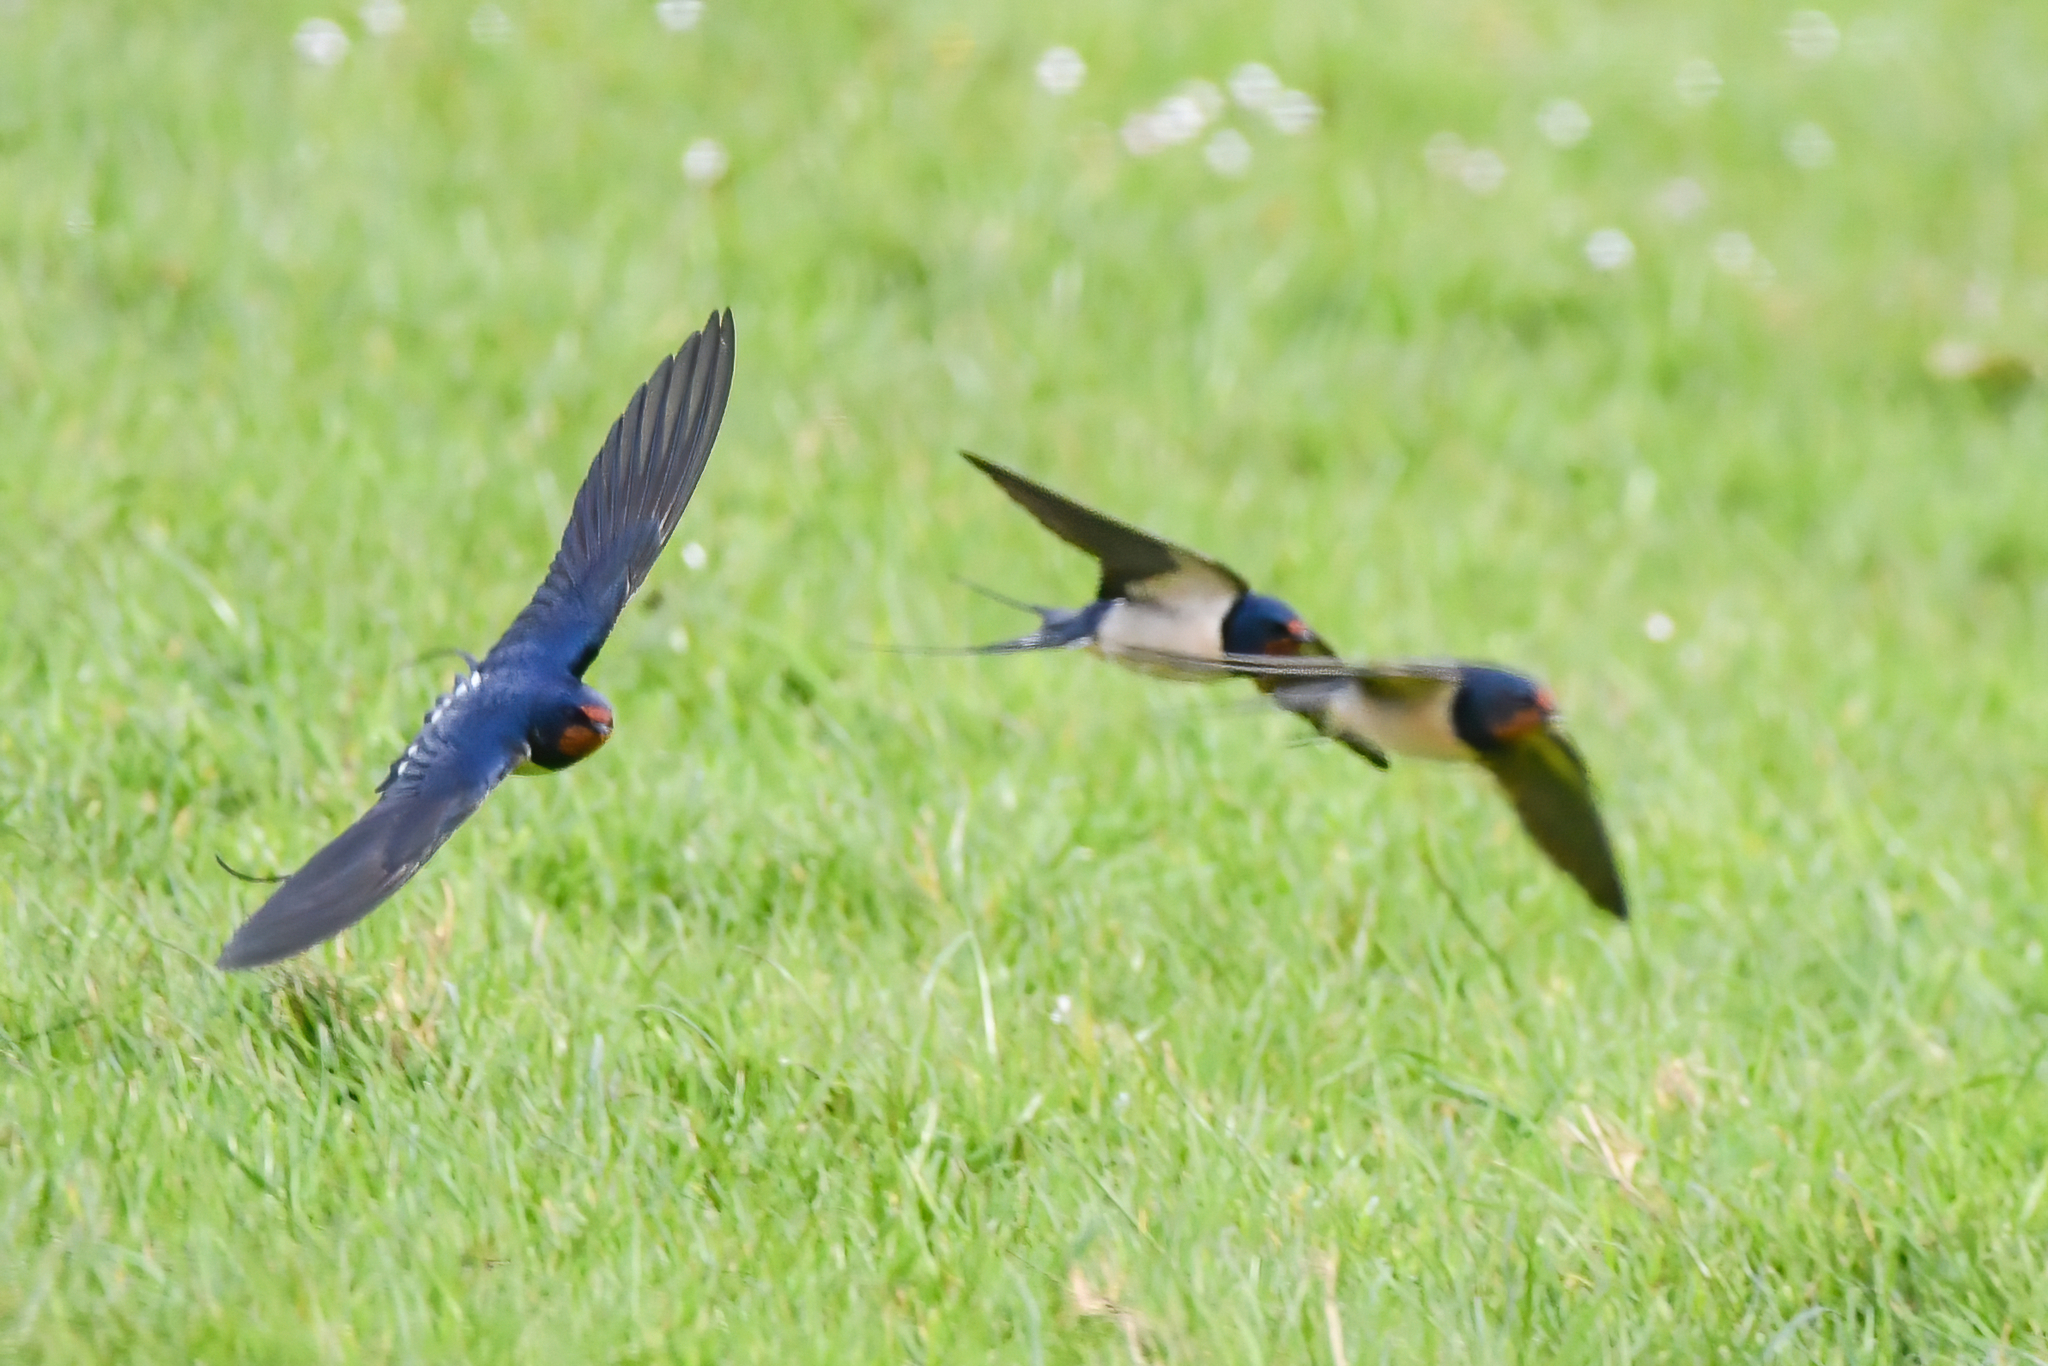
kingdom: Animalia
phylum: Chordata
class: Aves
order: Passeriformes
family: Hirundinidae
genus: Hirundo
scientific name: Hirundo rustica
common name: Barn swallow
